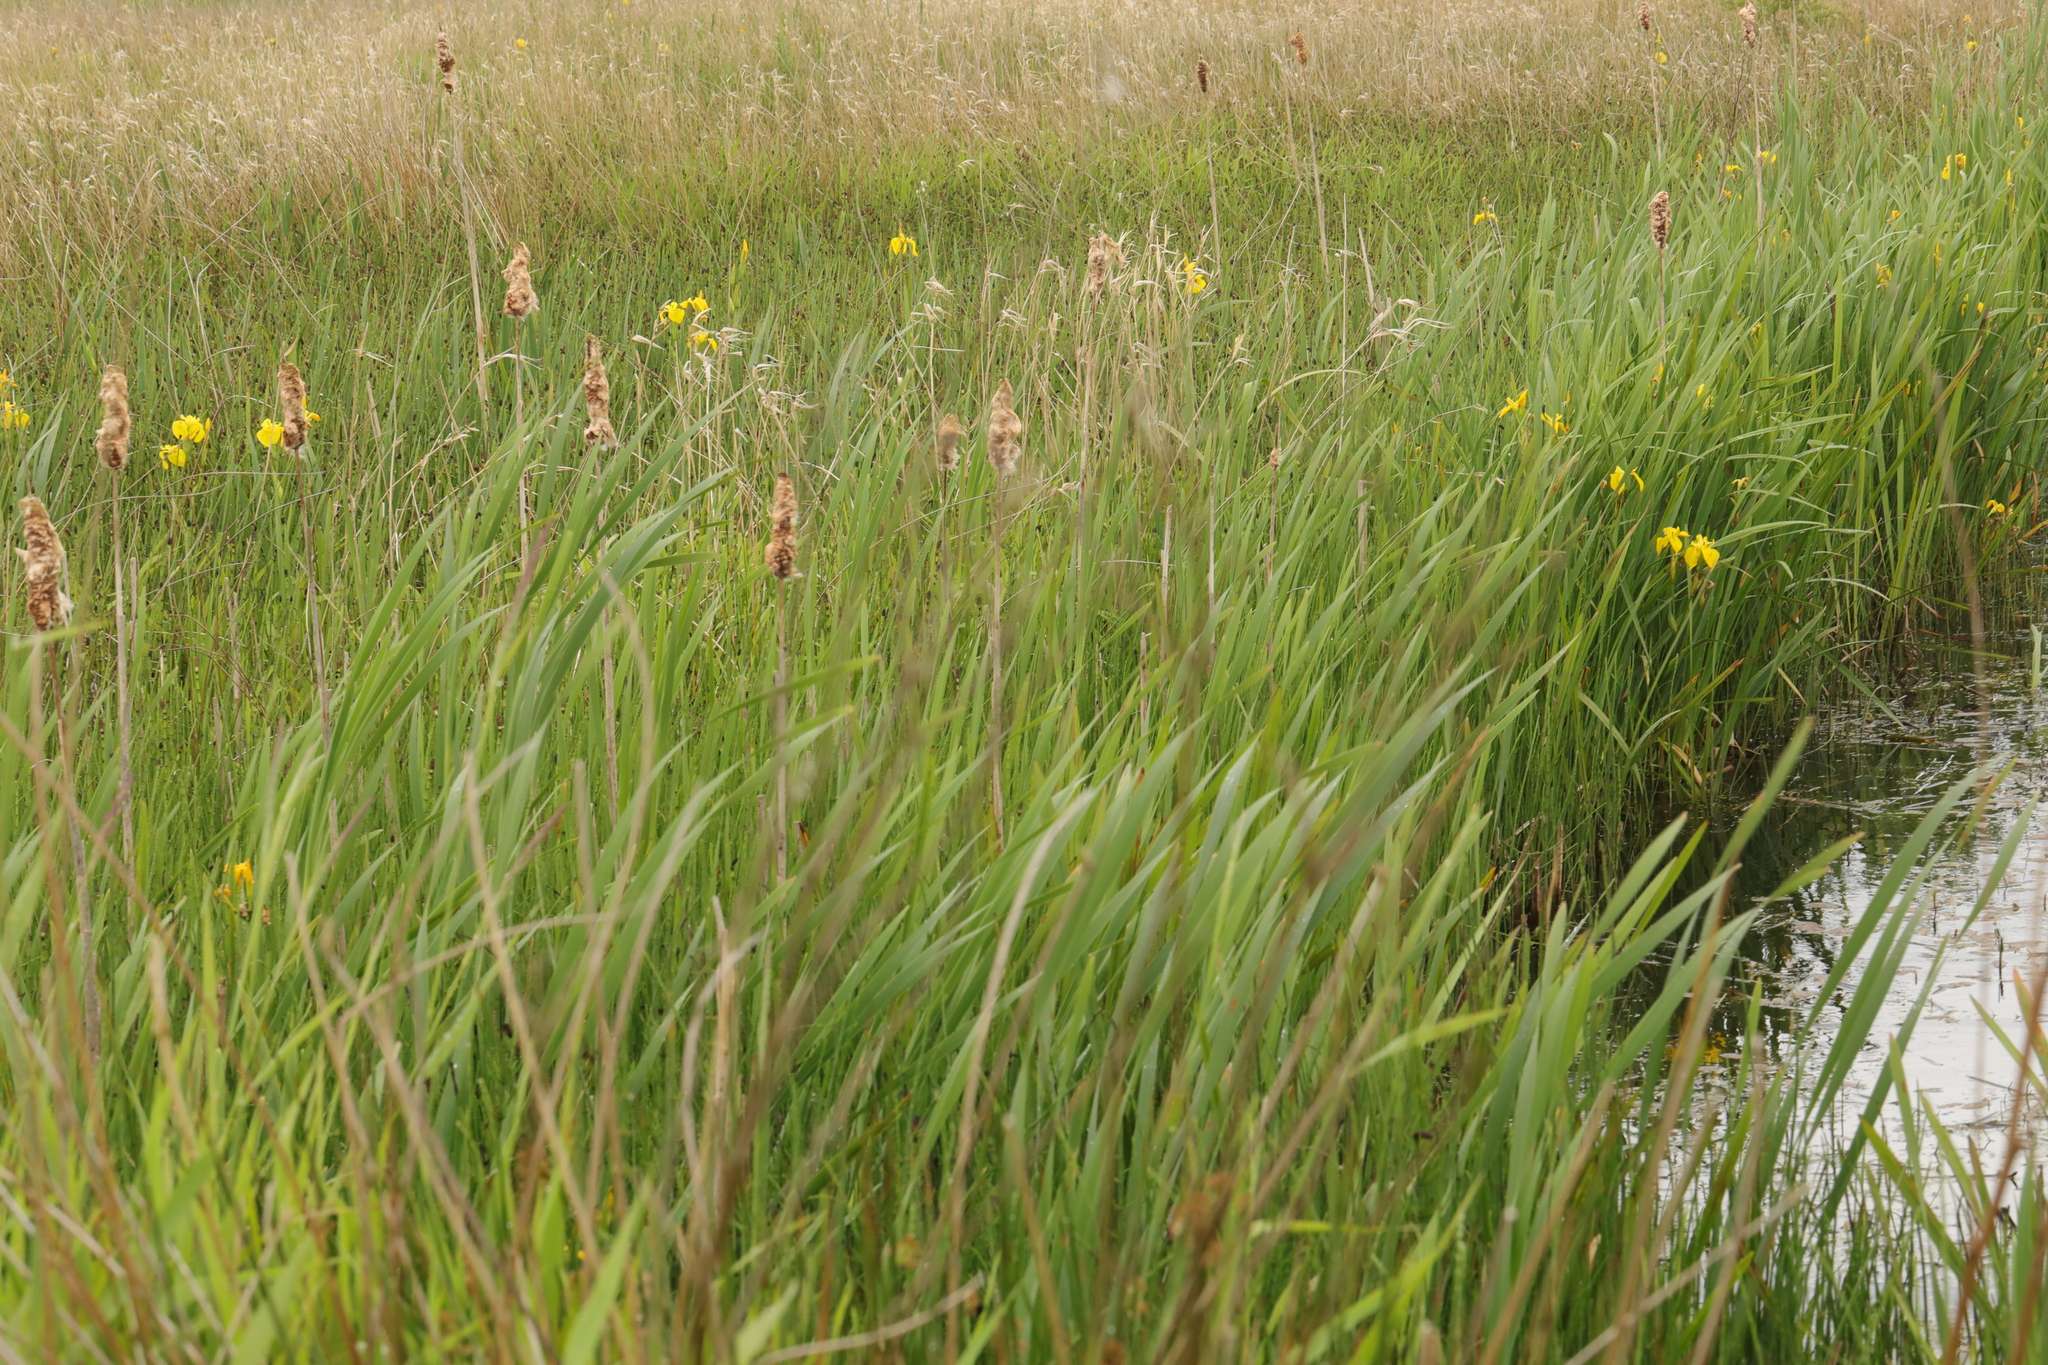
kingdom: Plantae
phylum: Tracheophyta
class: Liliopsida
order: Poales
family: Typhaceae
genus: Typha
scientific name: Typha latifolia
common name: Broadleaf cattail
